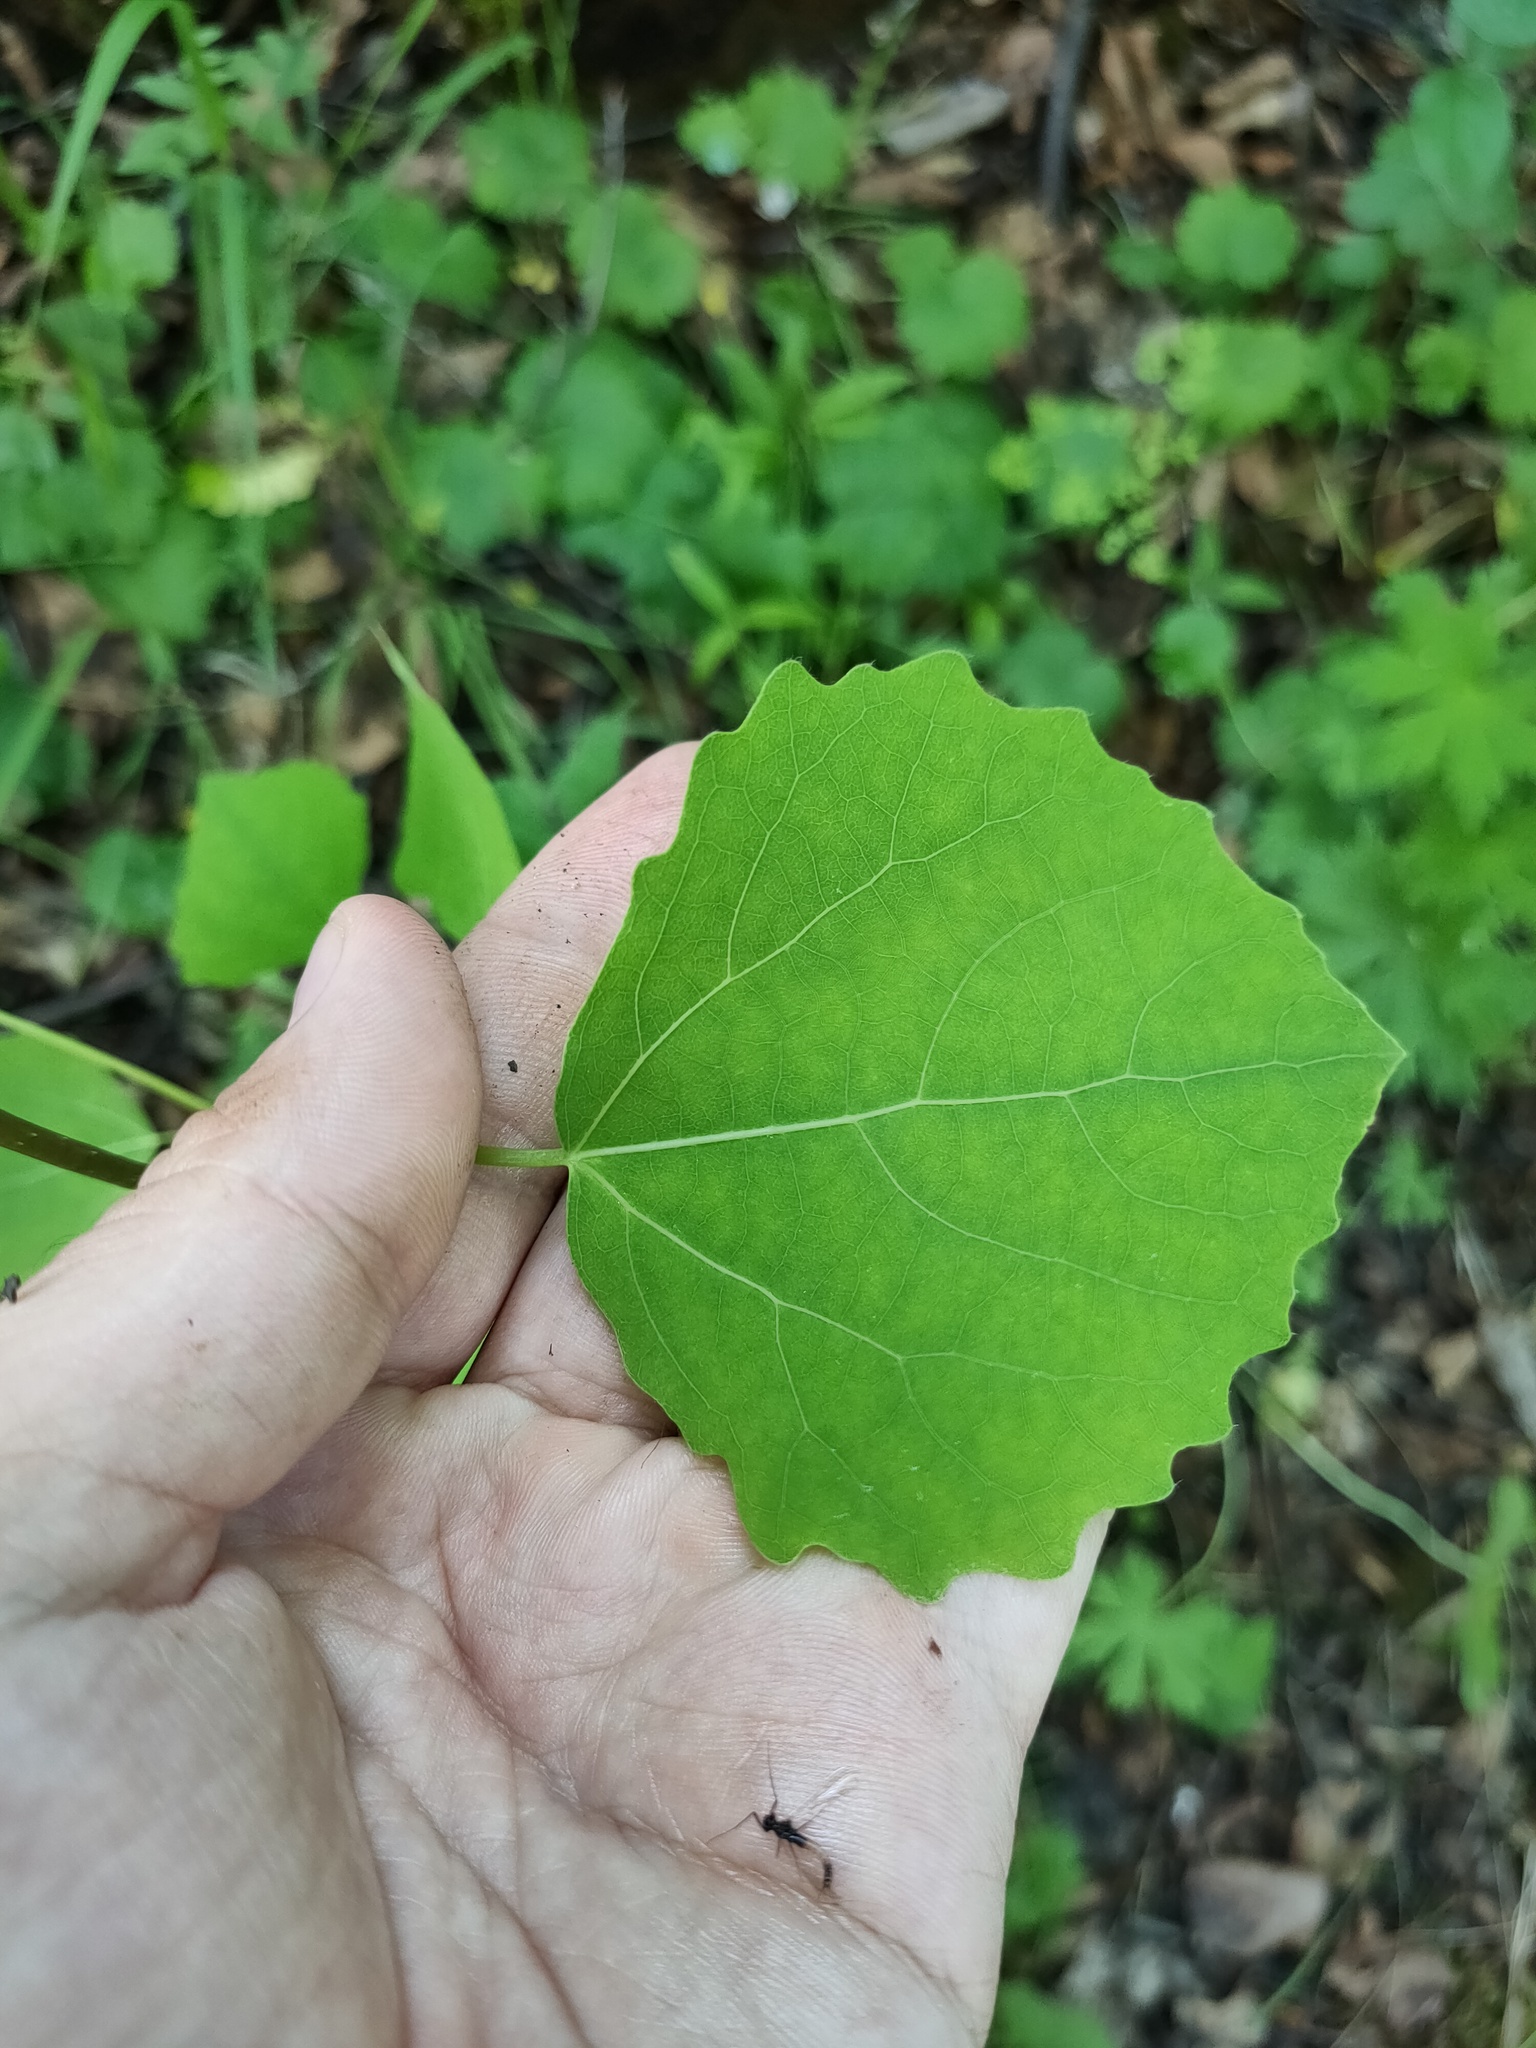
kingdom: Plantae
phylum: Tracheophyta
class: Magnoliopsida
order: Malpighiales
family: Salicaceae
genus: Populus
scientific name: Populus tremula
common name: European aspen
